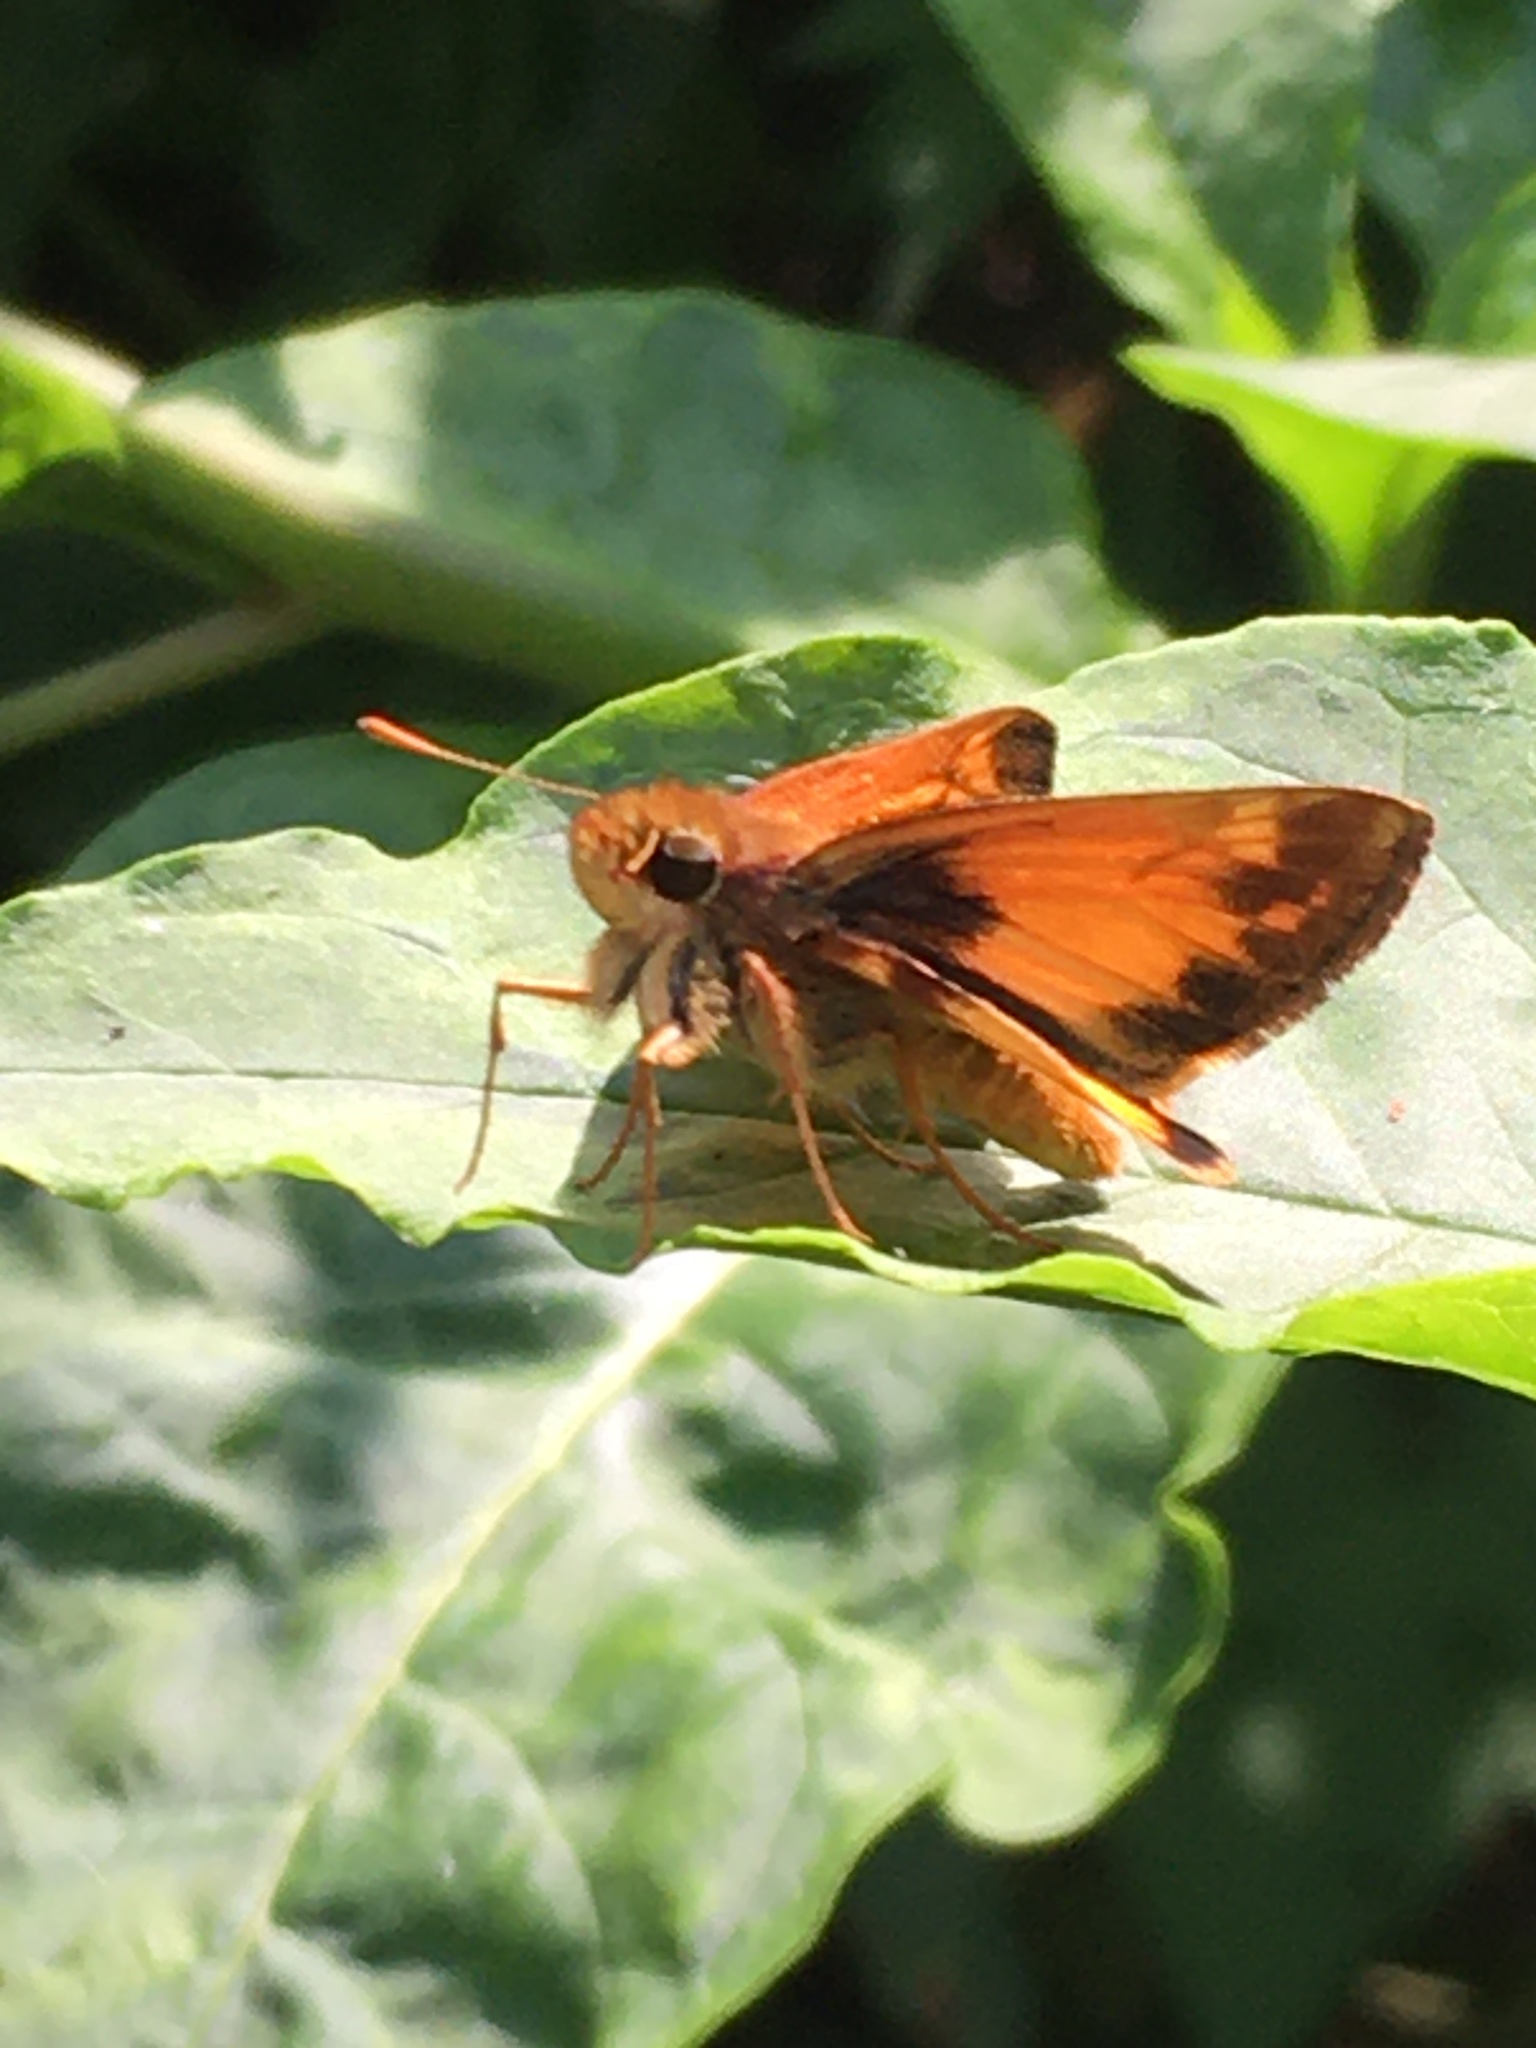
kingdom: Animalia
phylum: Arthropoda
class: Insecta
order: Lepidoptera
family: Hesperiidae
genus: Lon
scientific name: Lon zabulon
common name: Zabulon skipper
